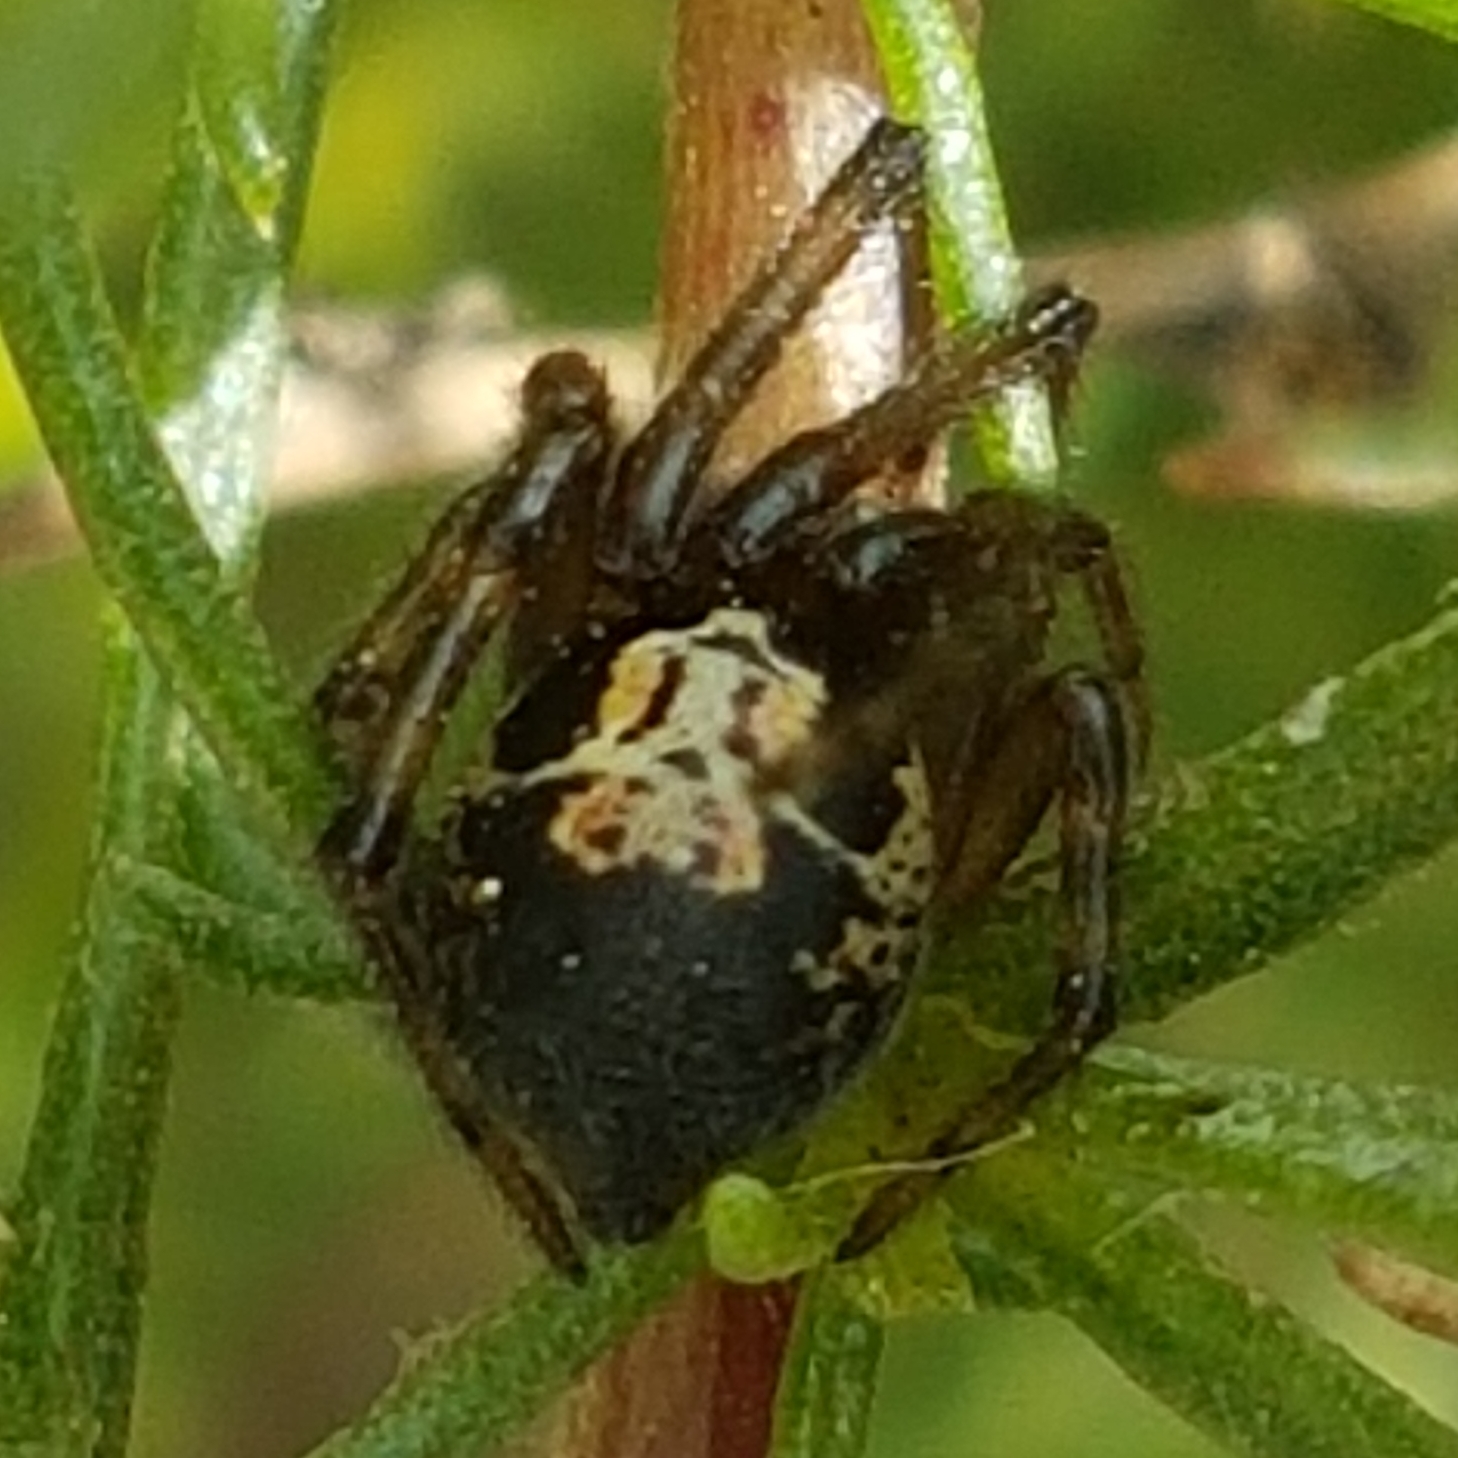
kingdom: Animalia
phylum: Arthropoda
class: Arachnida
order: Araneae
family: Theridiidae
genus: Steatoda
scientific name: Steatoda nobilis
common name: Cobweb weaver
